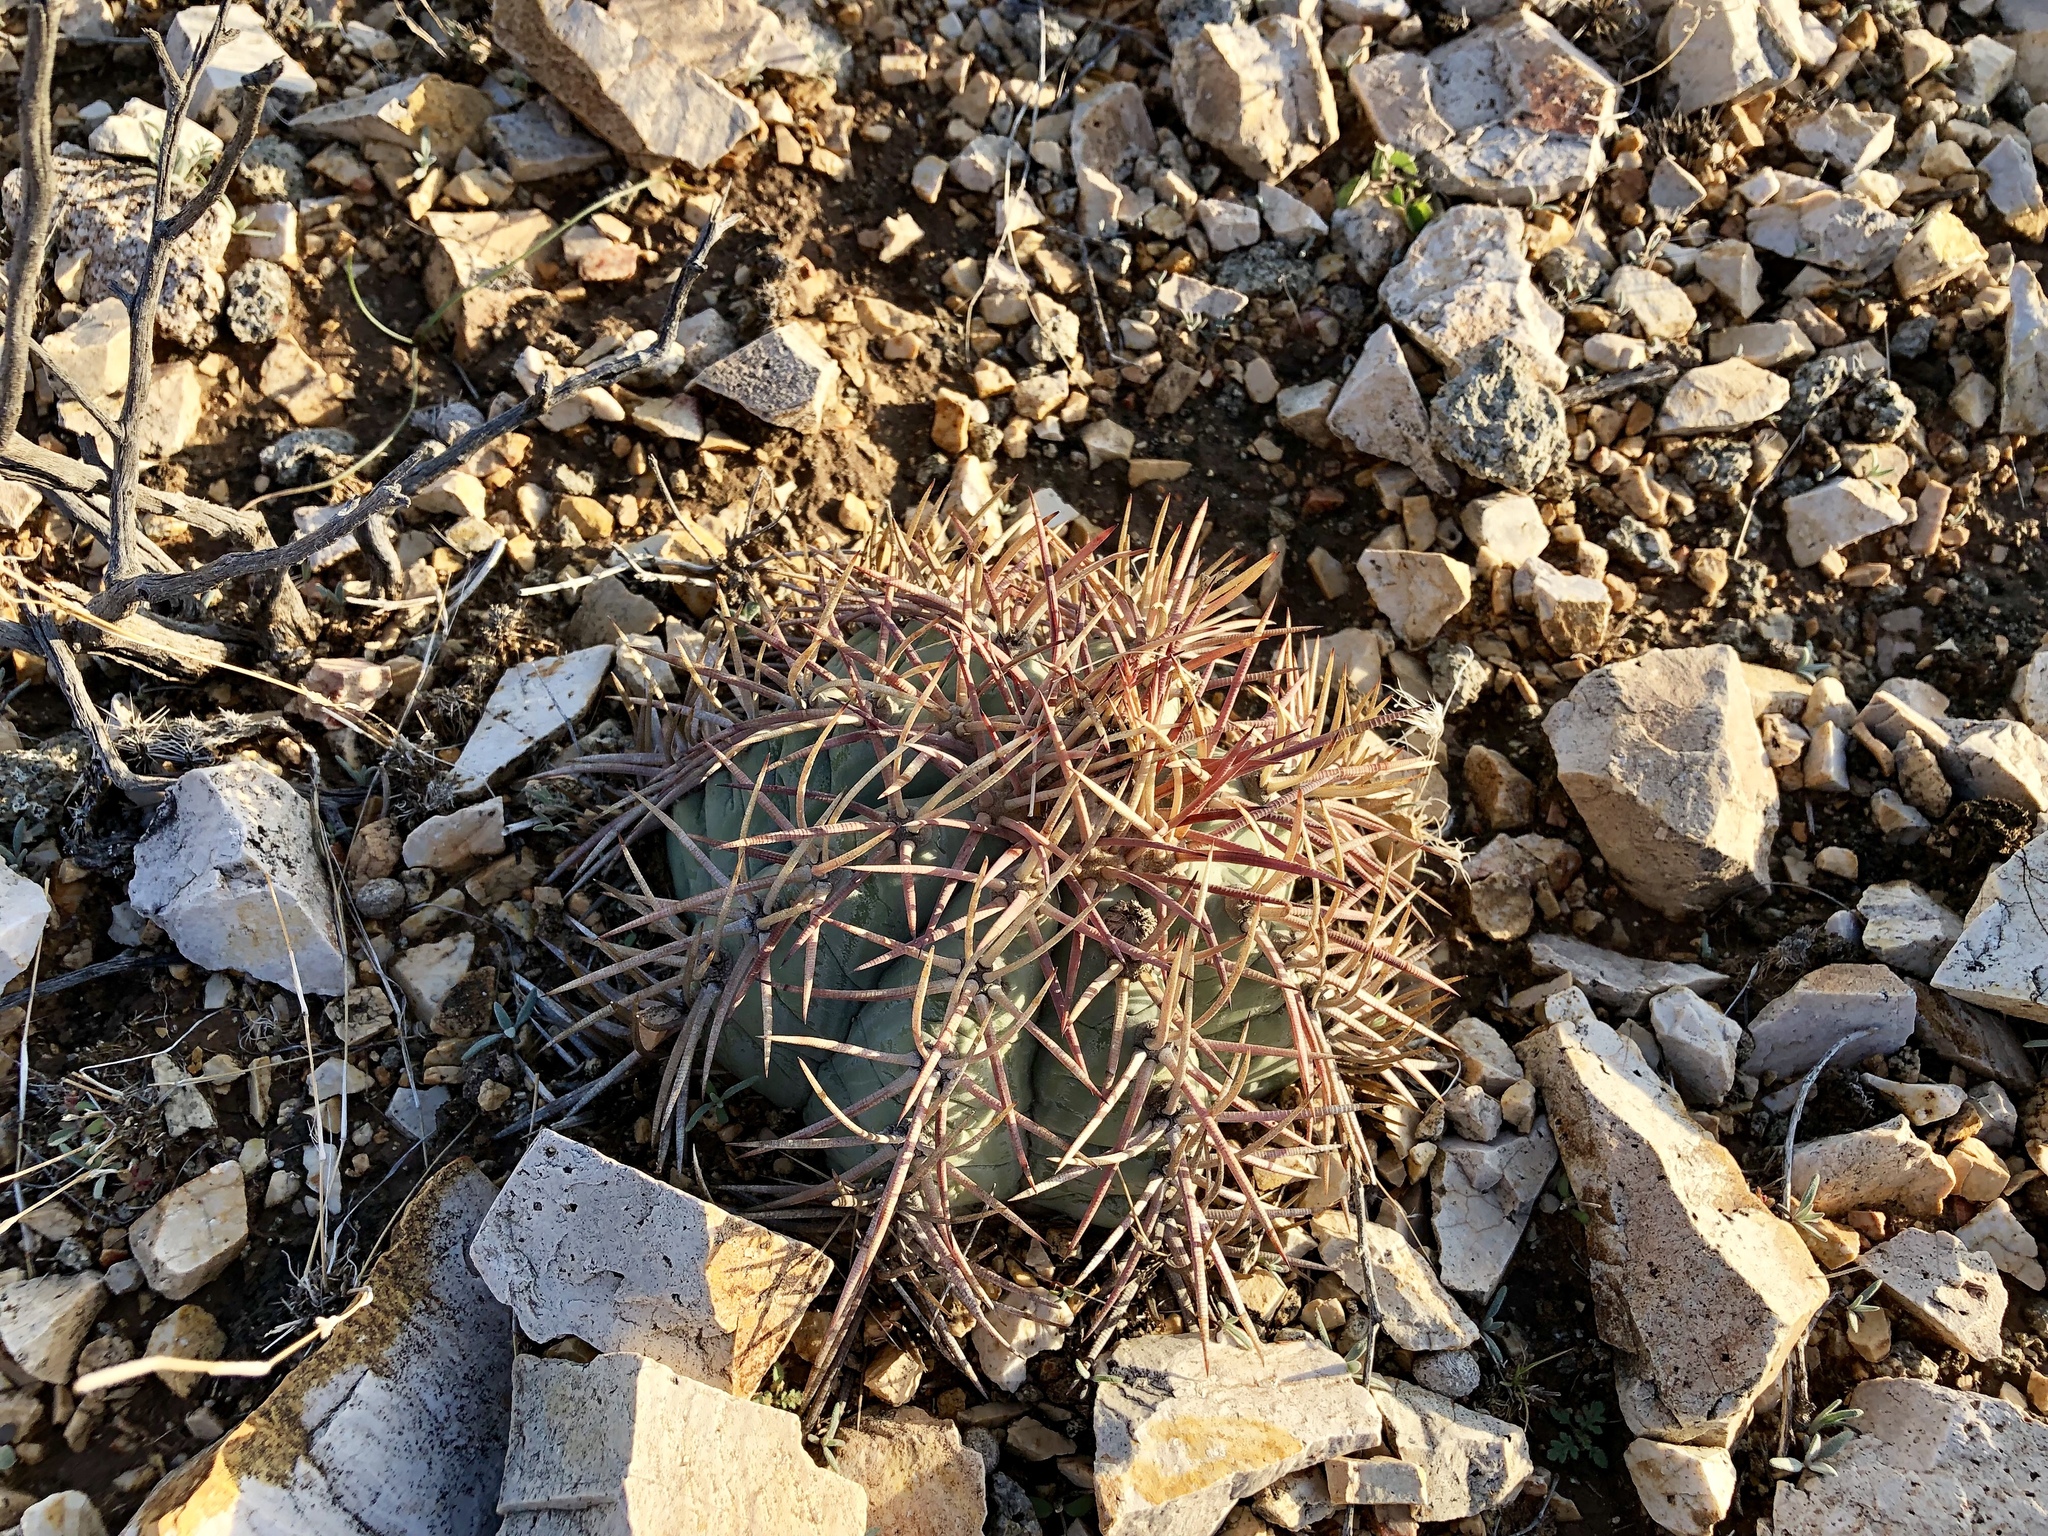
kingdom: Plantae
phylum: Tracheophyta
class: Magnoliopsida
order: Caryophyllales
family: Cactaceae
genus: Echinocactus
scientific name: Echinocactus horizonthalonius
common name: Devilshead
